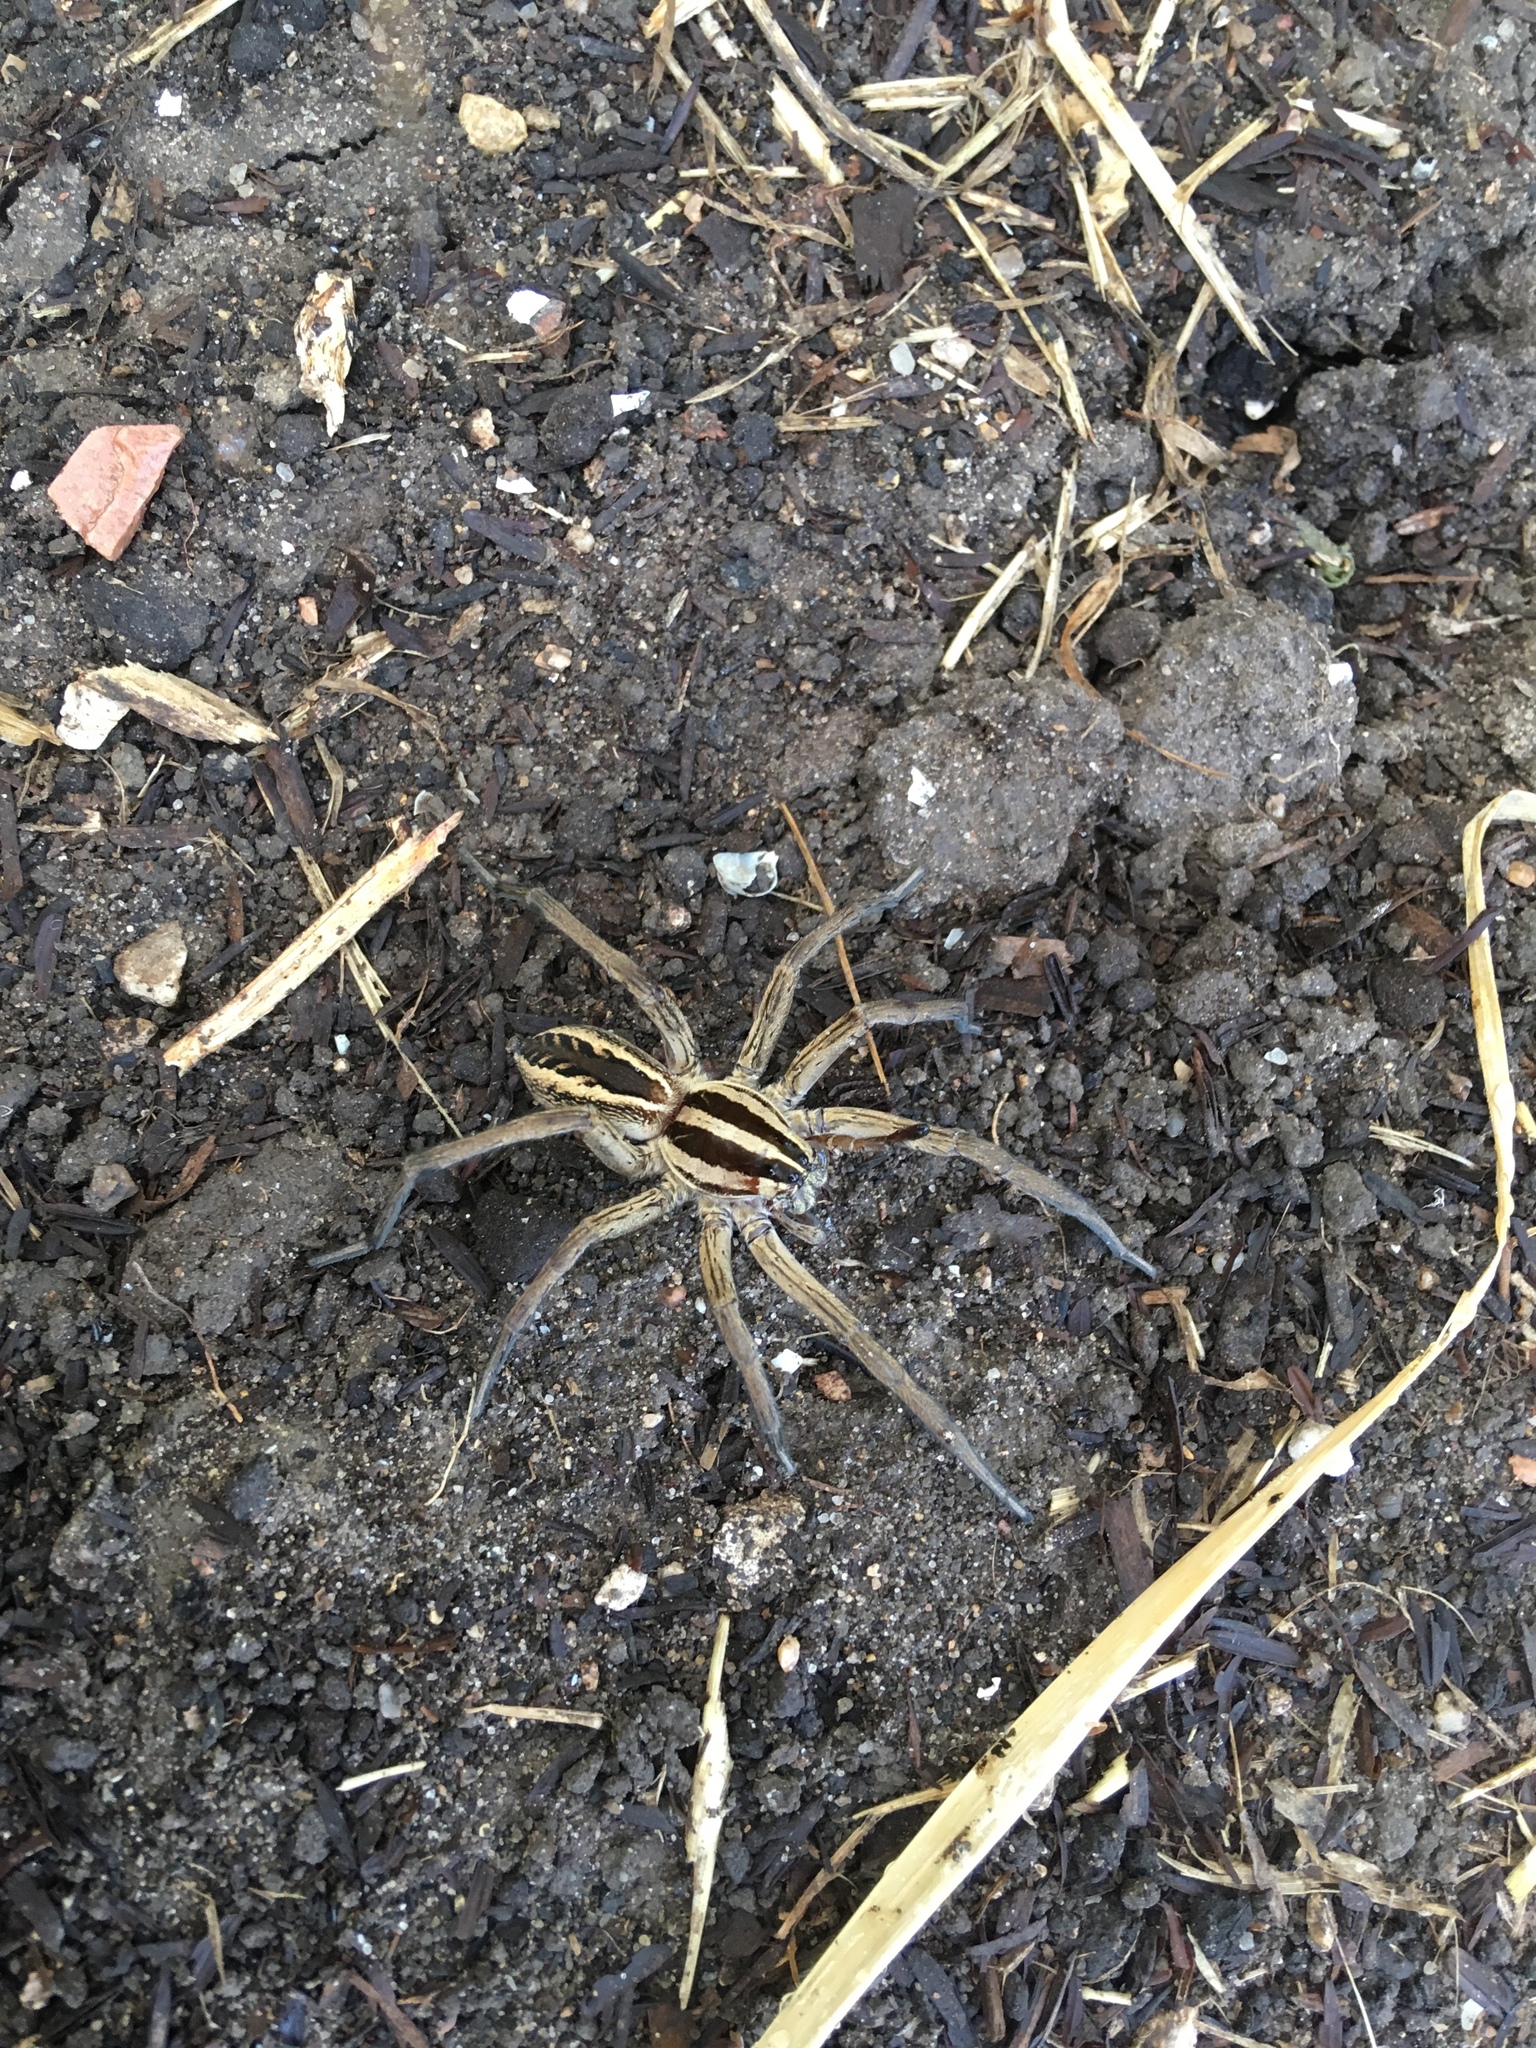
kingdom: Animalia
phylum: Arthropoda
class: Arachnida
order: Araneae
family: Lycosidae
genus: Rabidosa
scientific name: Rabidosa rabida
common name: Rabid wolf spider
